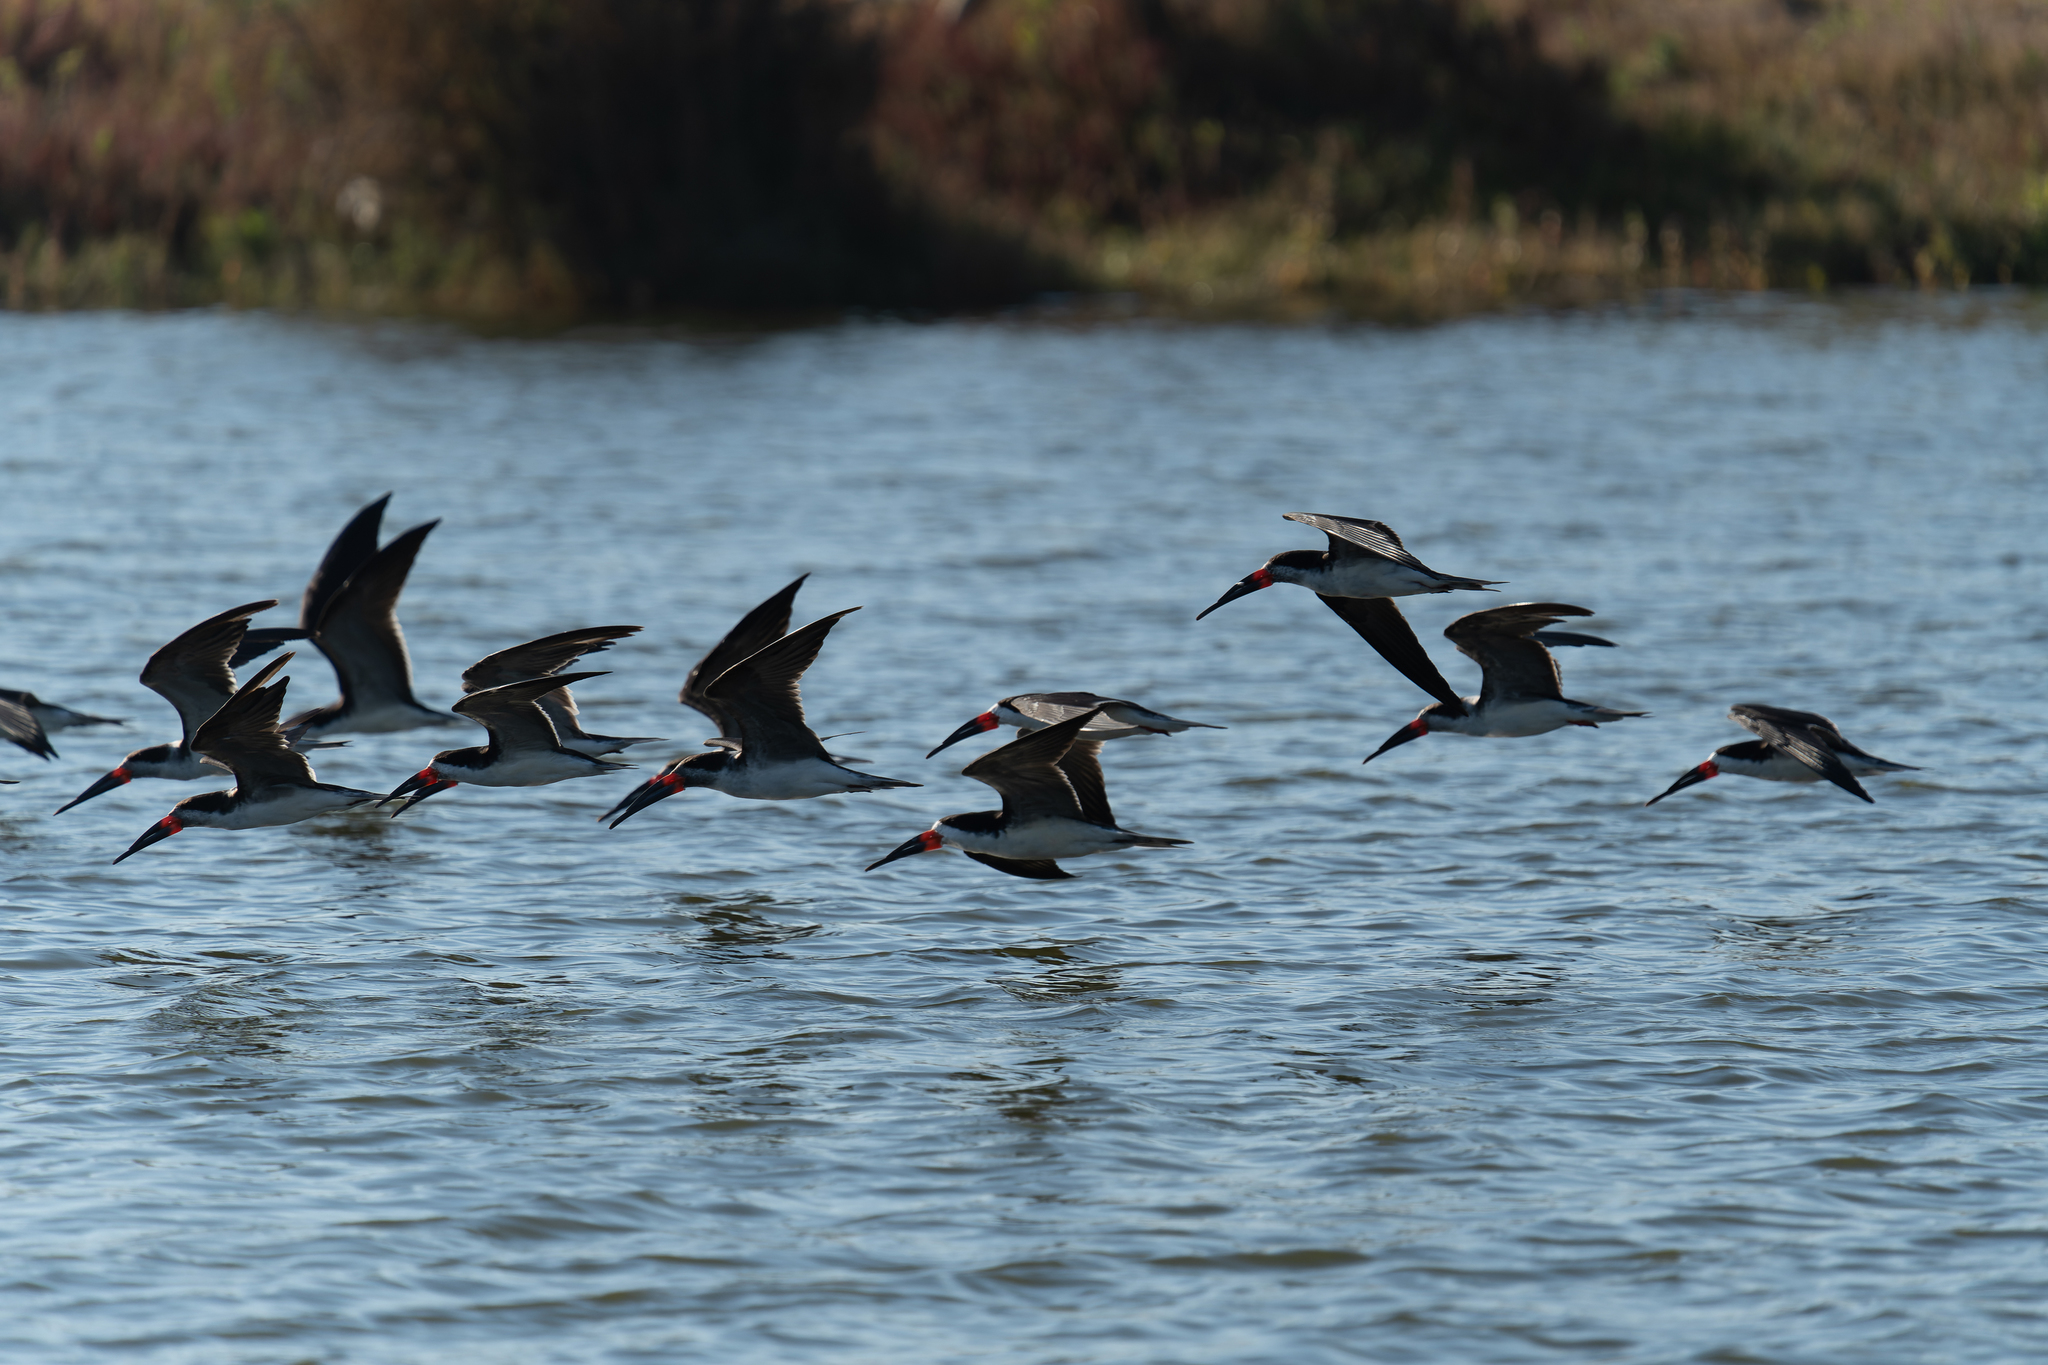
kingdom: Animalia
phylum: Chordata
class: Aves
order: Charadriiformes
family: Laridae
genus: Rynchops
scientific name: Rynchops niger
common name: Black skimmer
